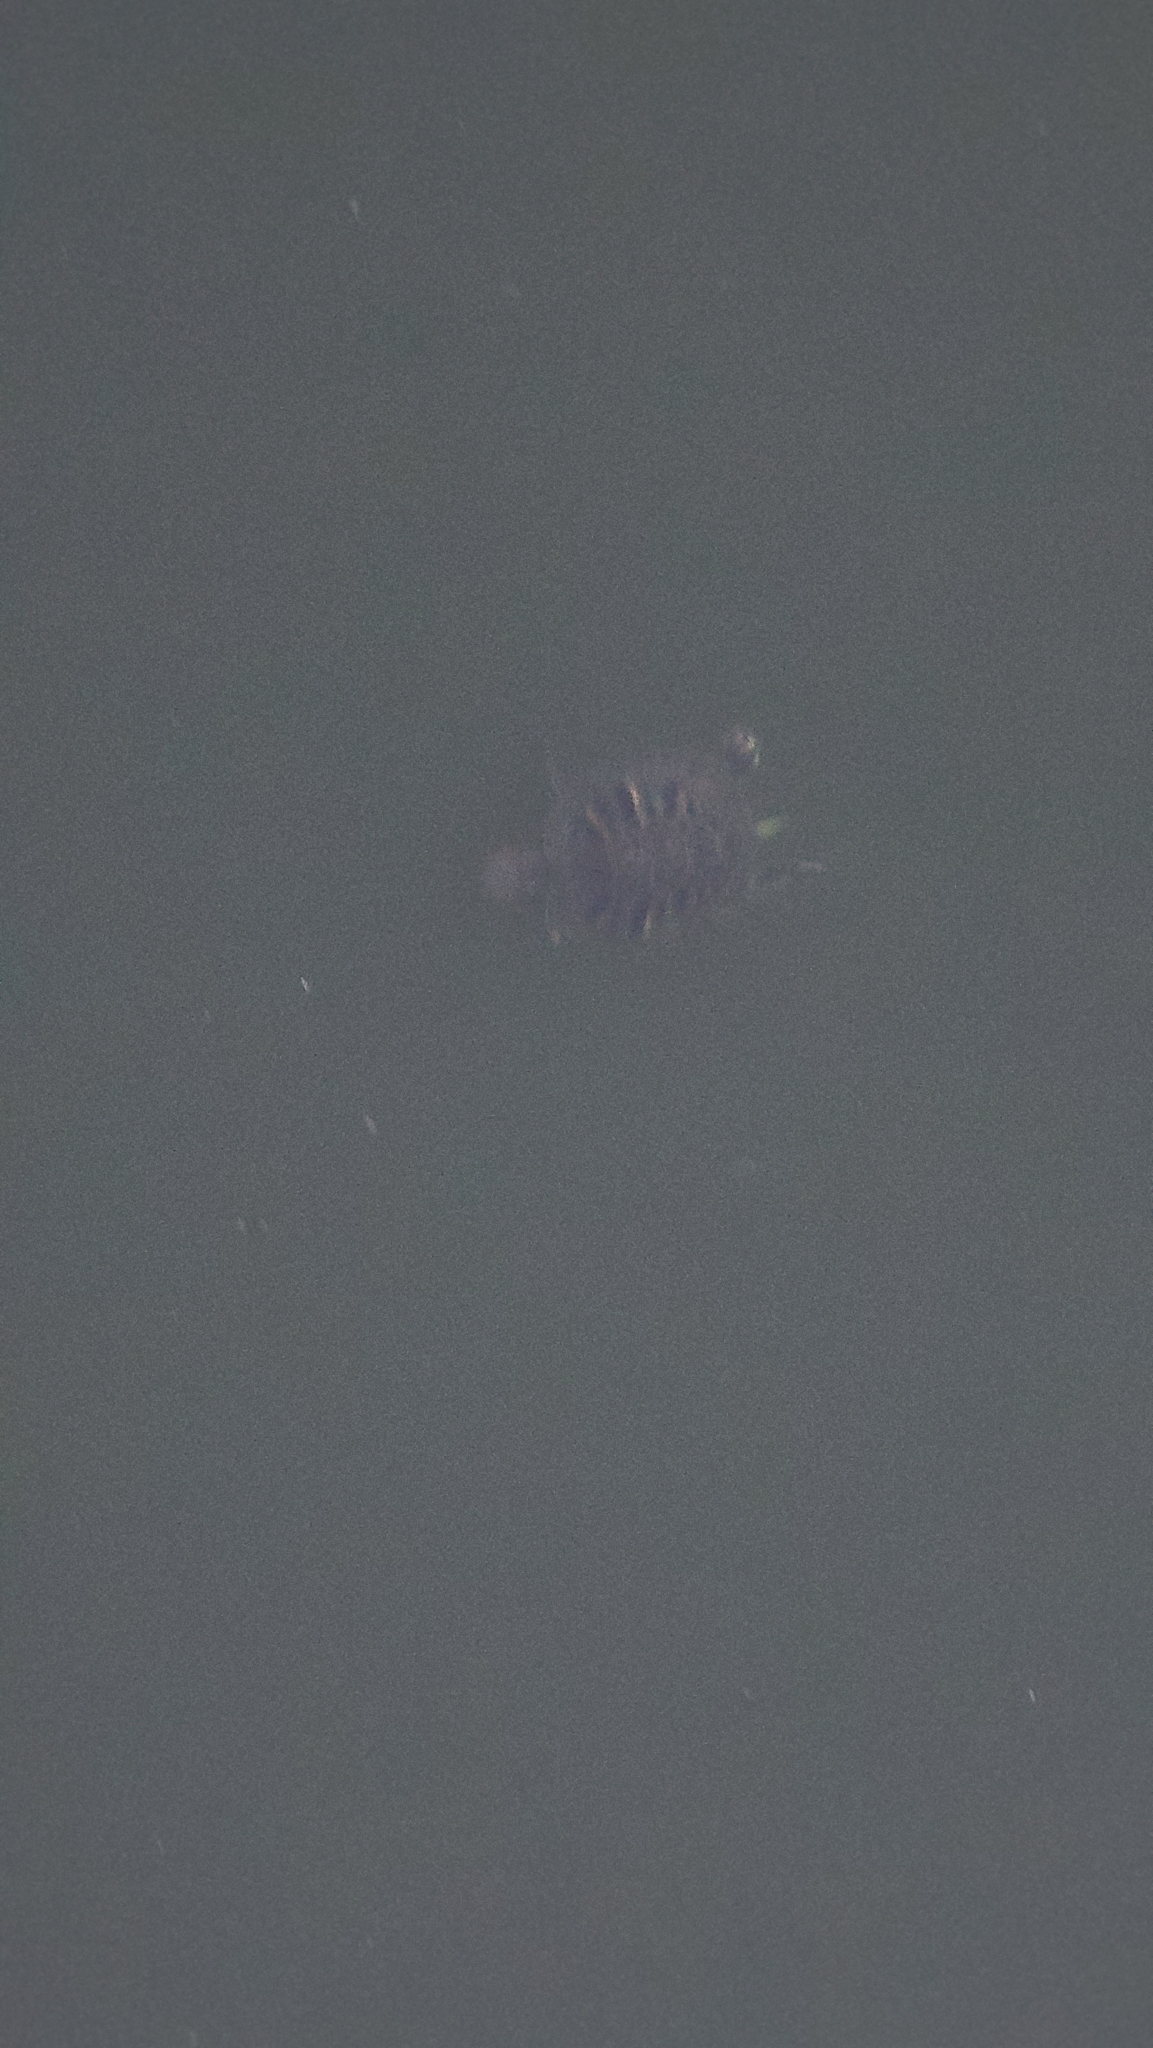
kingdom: Animalia
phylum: Chordata
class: Testudines
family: Emydidae
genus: Trachemys
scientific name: Trachemys scripta
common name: Slider
